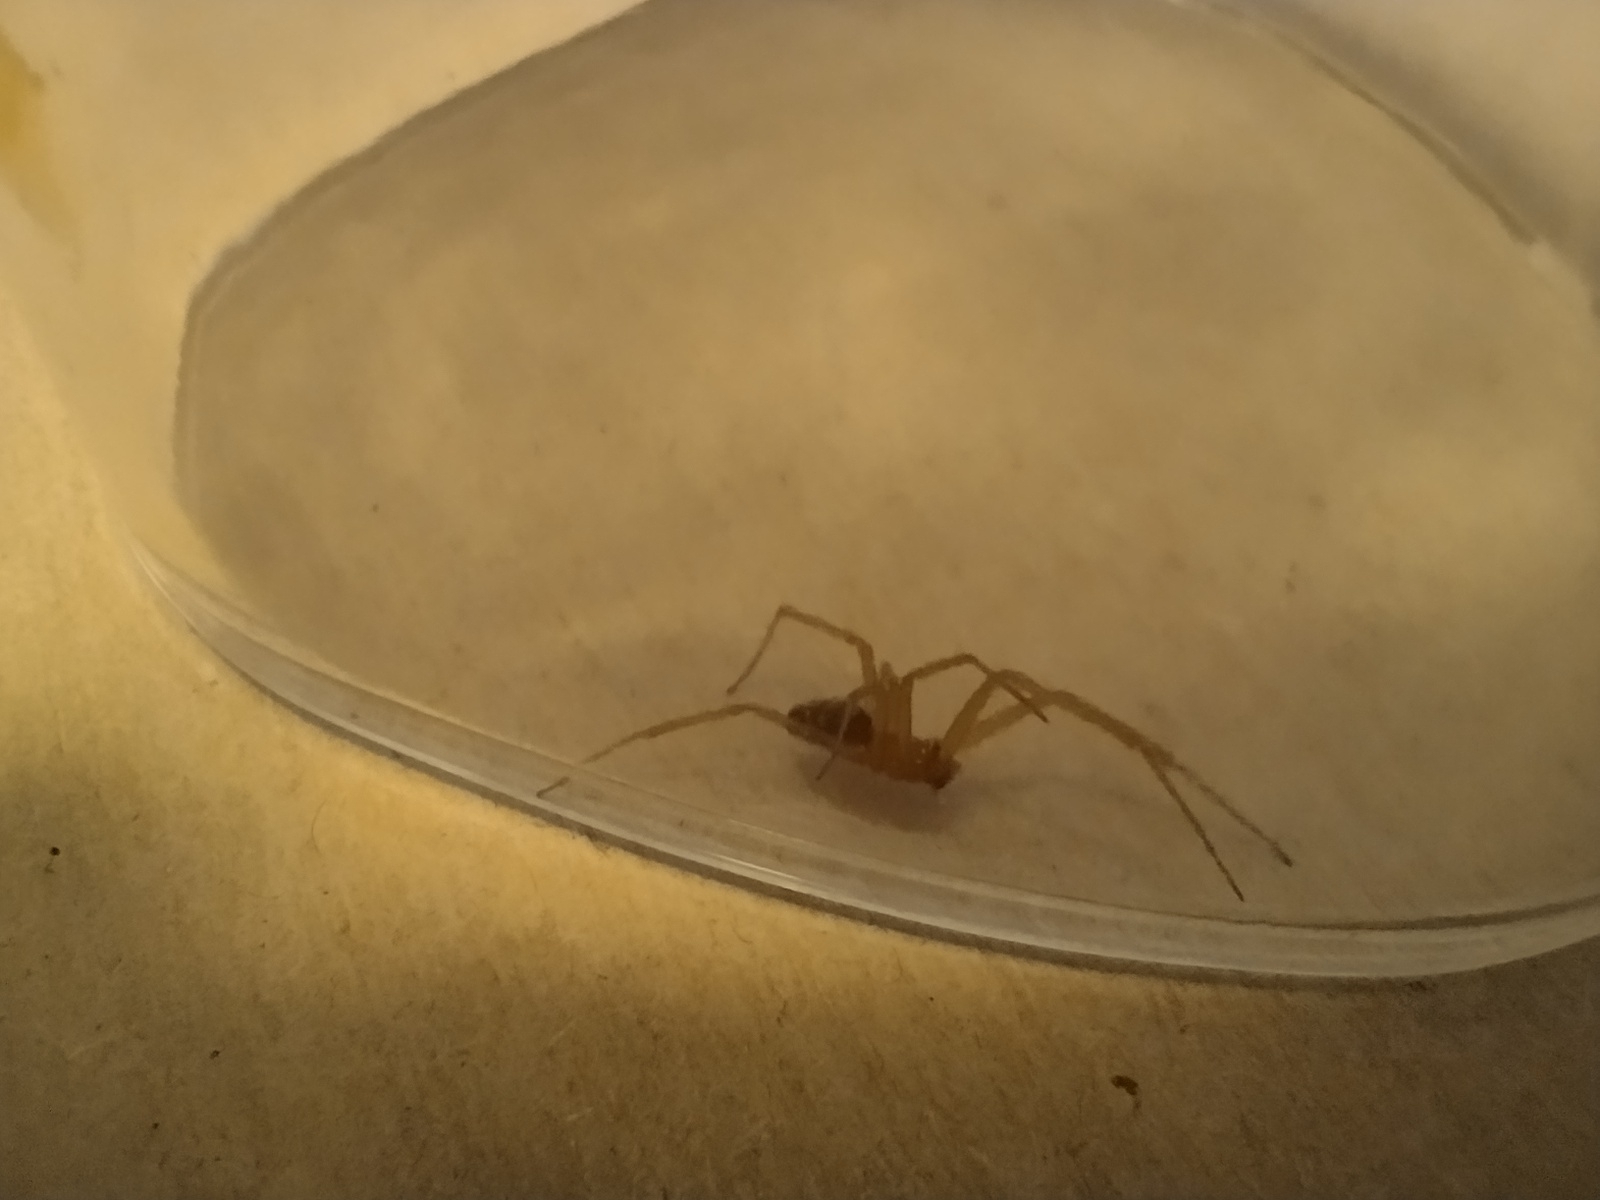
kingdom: Animalia
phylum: Arthropoda
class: Arachnida
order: Araneae
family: Theridiidae
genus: Steatoda
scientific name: Steatoda grossa
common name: False black widow
